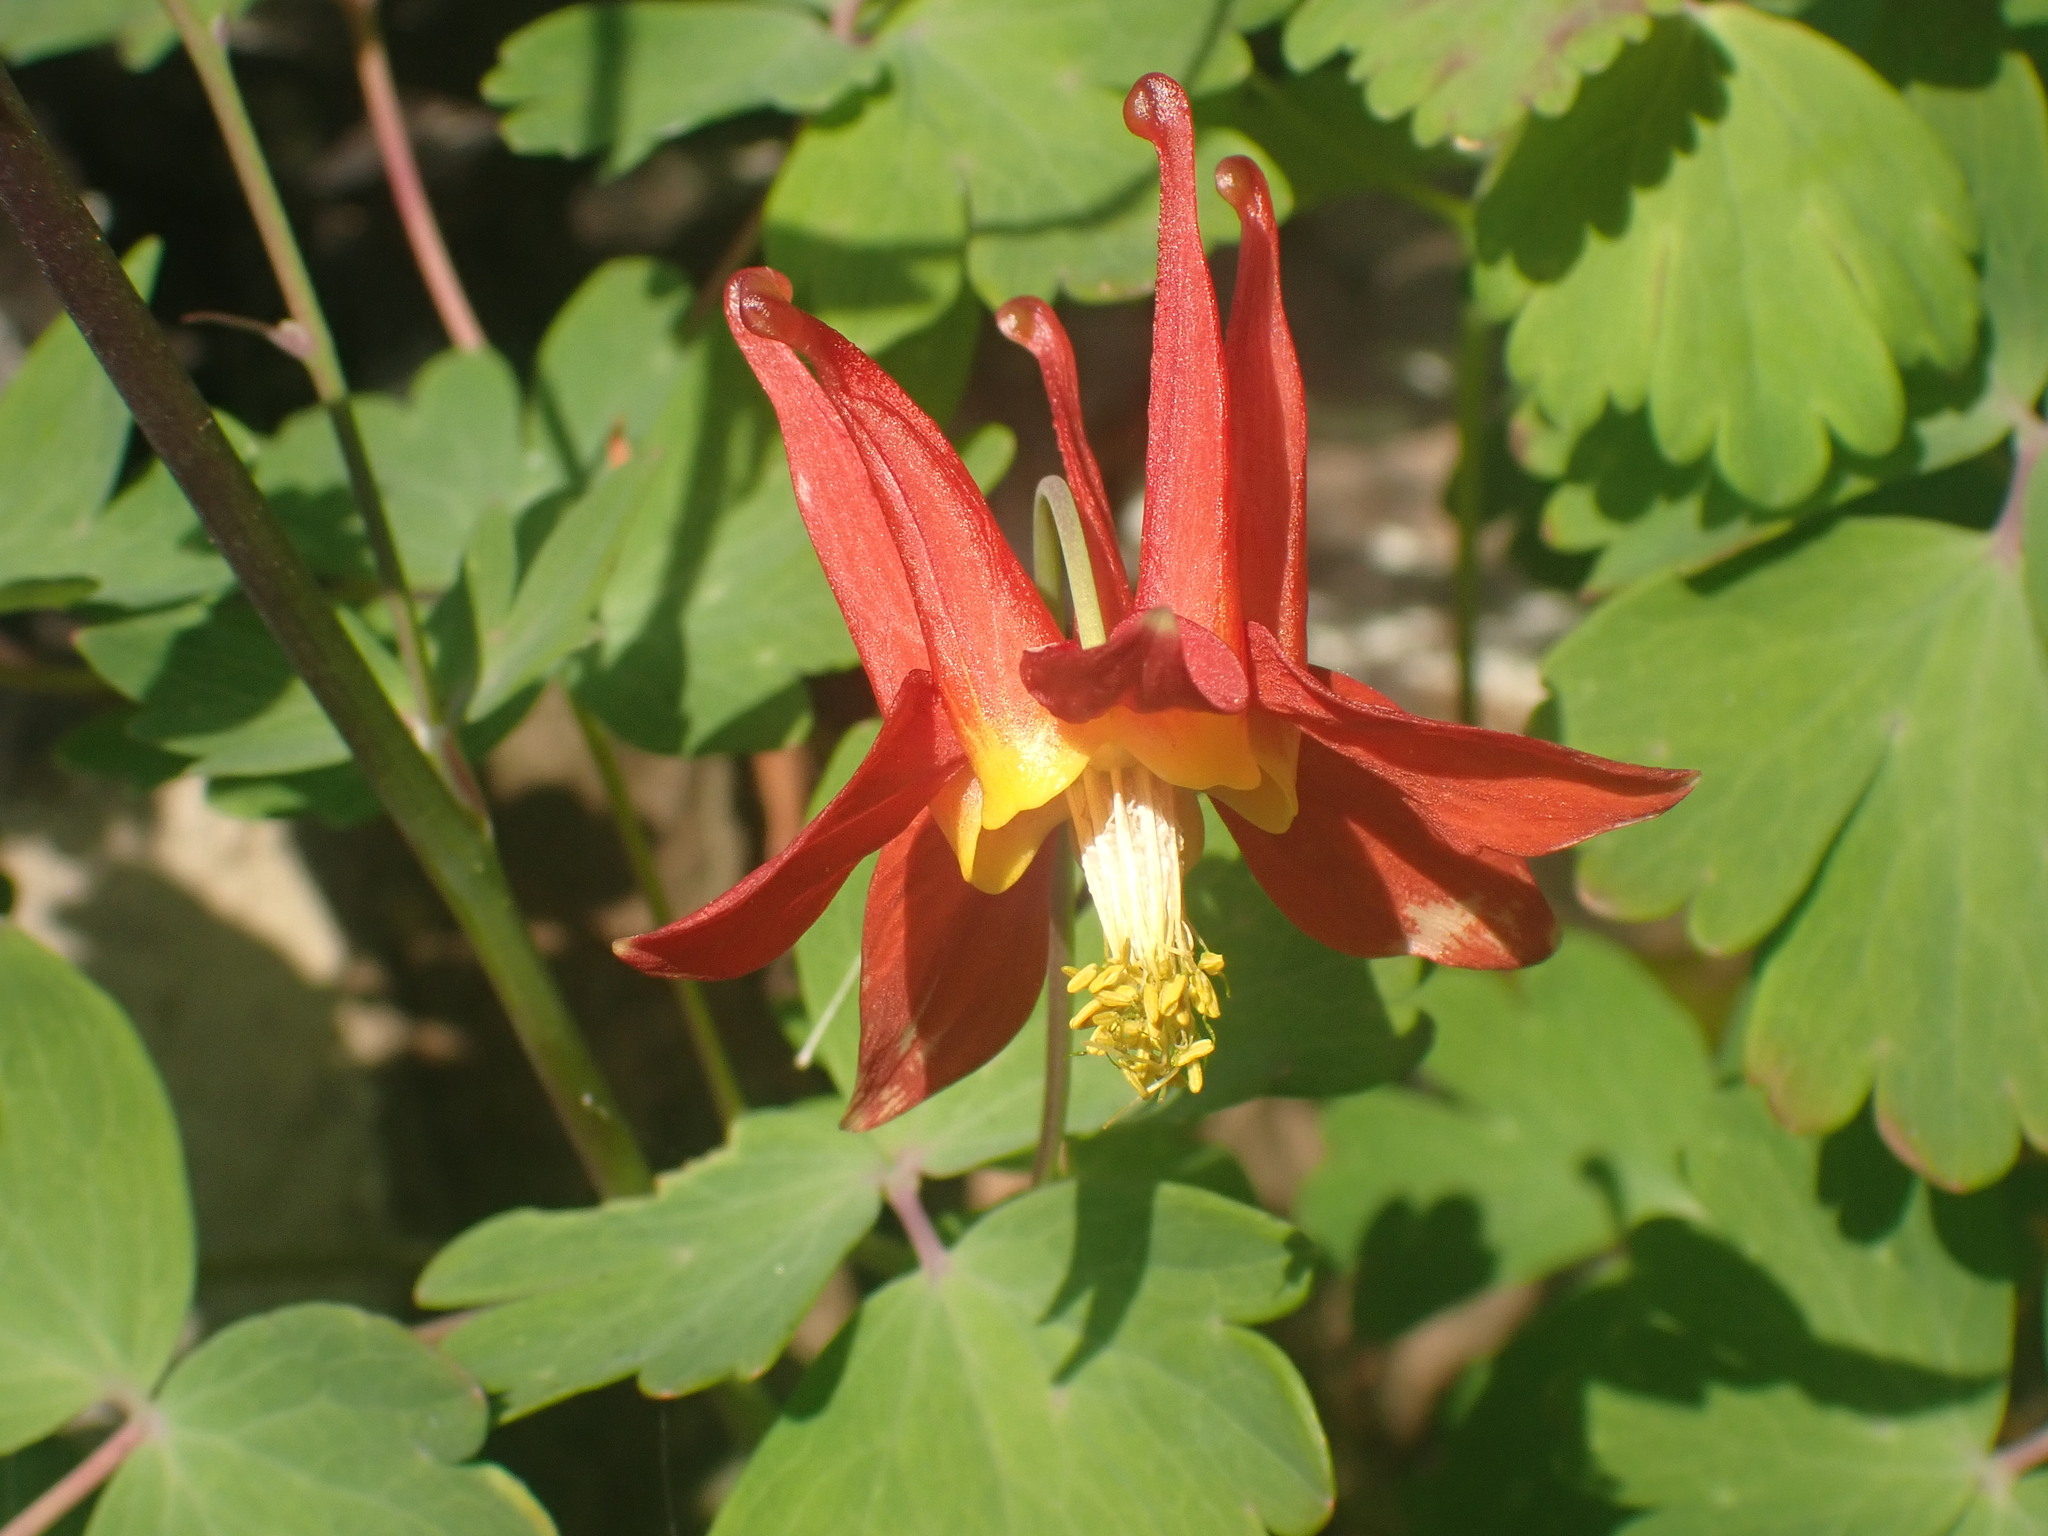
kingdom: Plantae
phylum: Tracheophyta
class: Magnoliopsida
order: Ranunculales
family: Ranunculaceae
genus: Aquilegia
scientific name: Aquilegia formosa
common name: Sitka columbine
